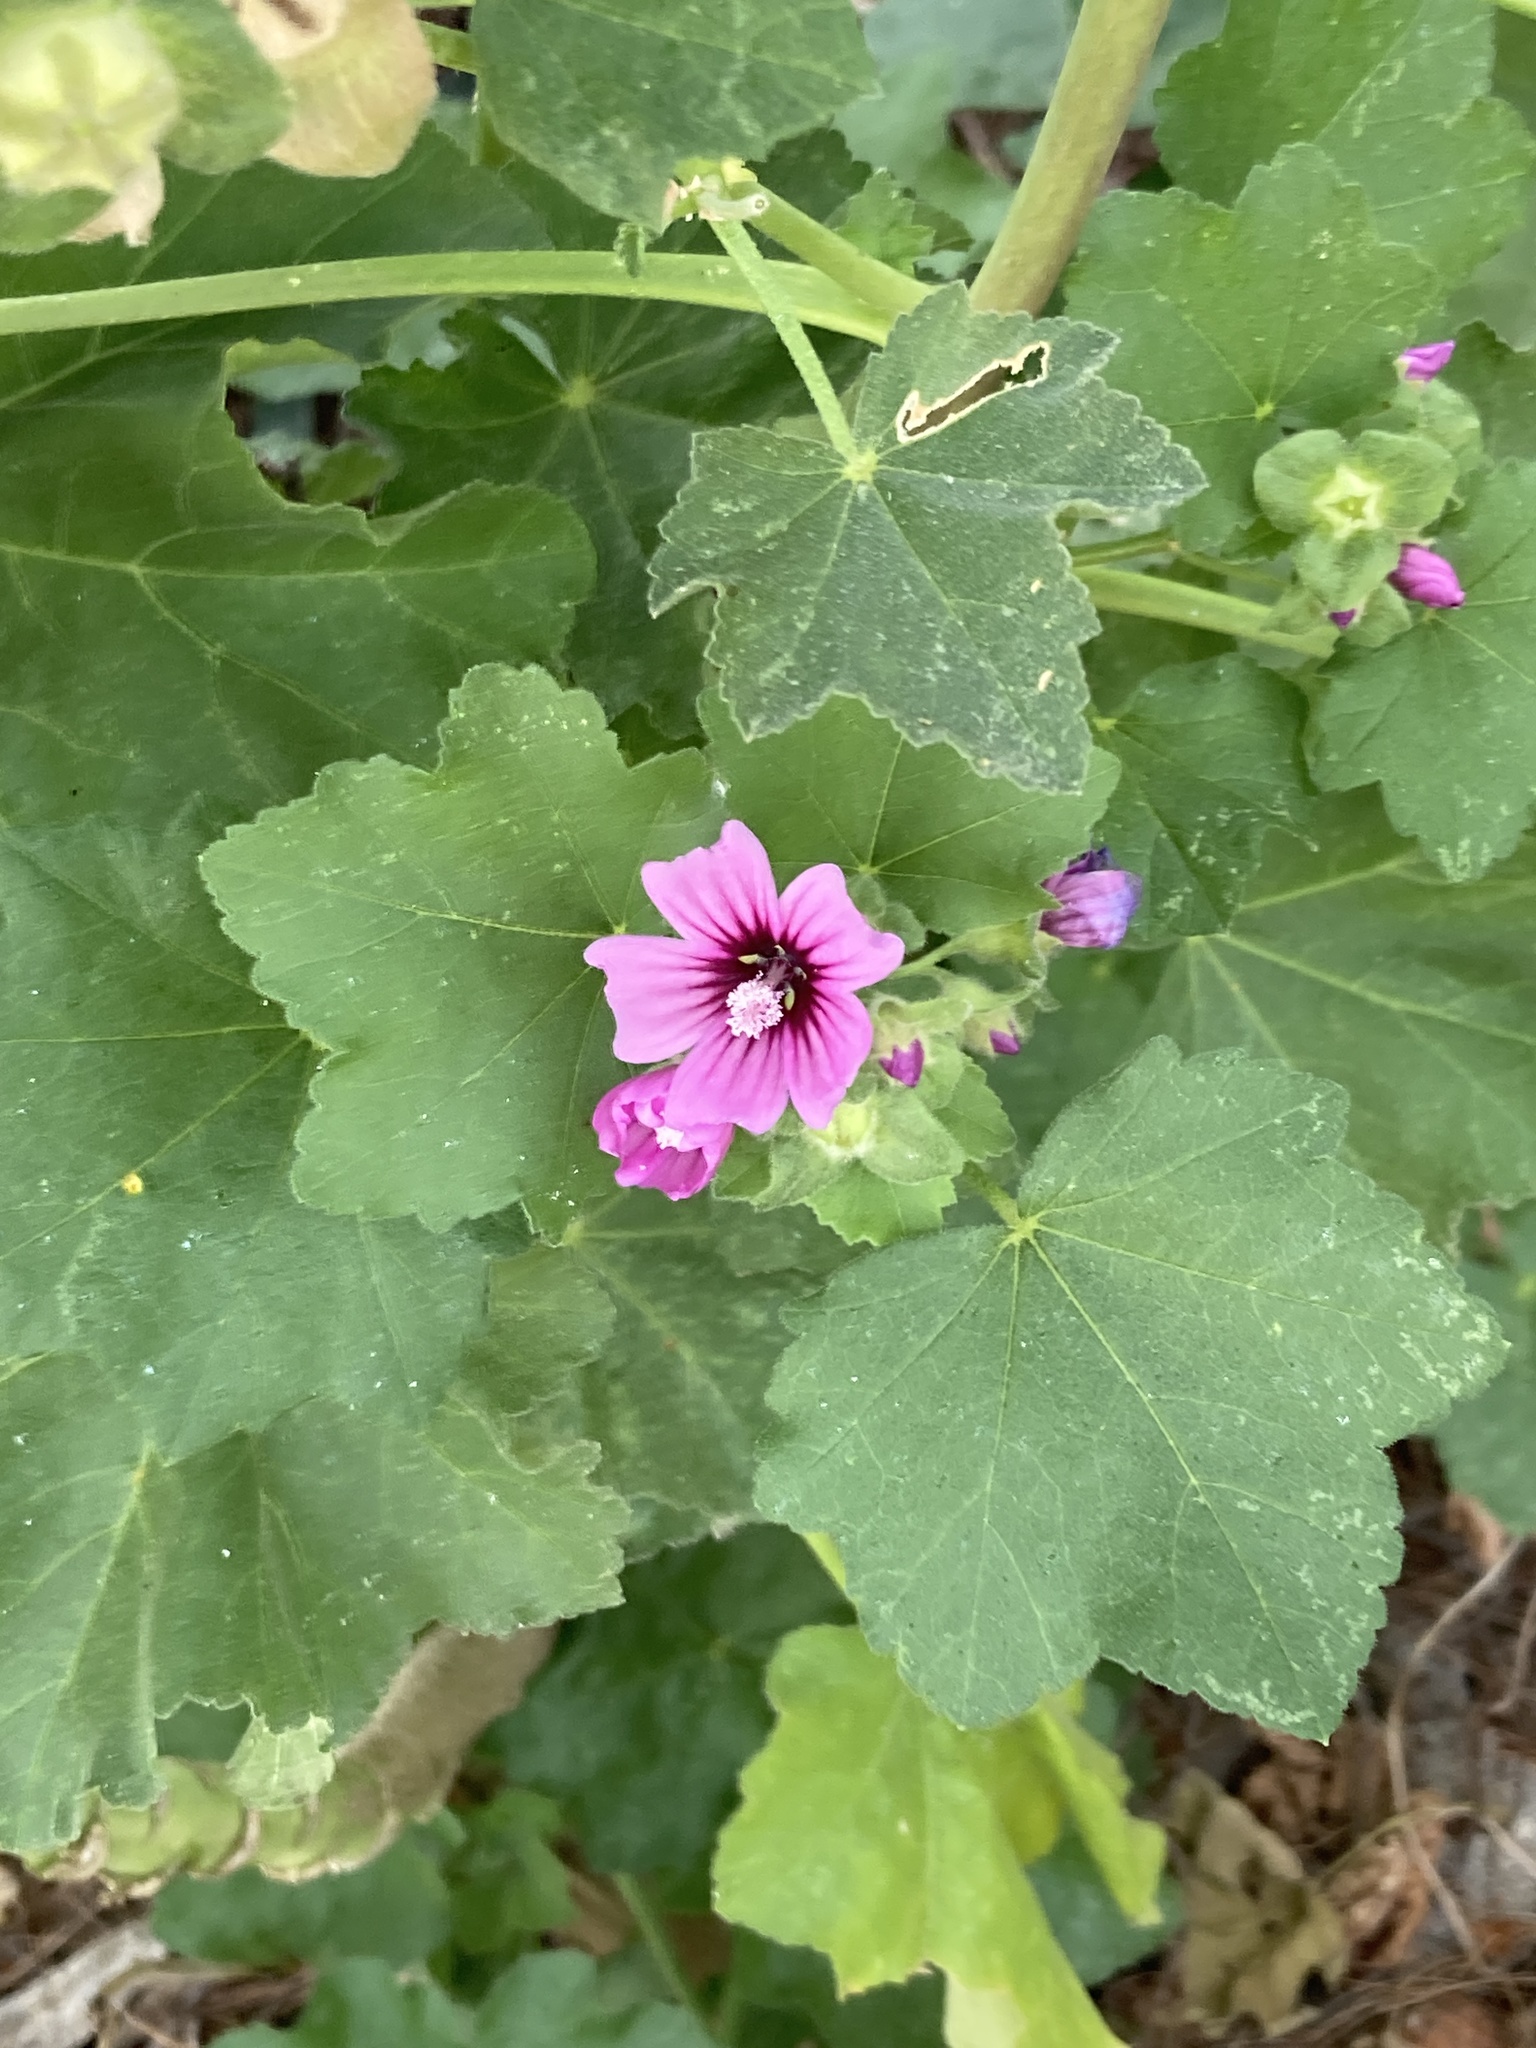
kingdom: Plantae
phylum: Tracheophyta
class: Magnoliopsida
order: Malvales
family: Malvaceae
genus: Malva
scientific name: Malva arborea
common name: Tree mallow
